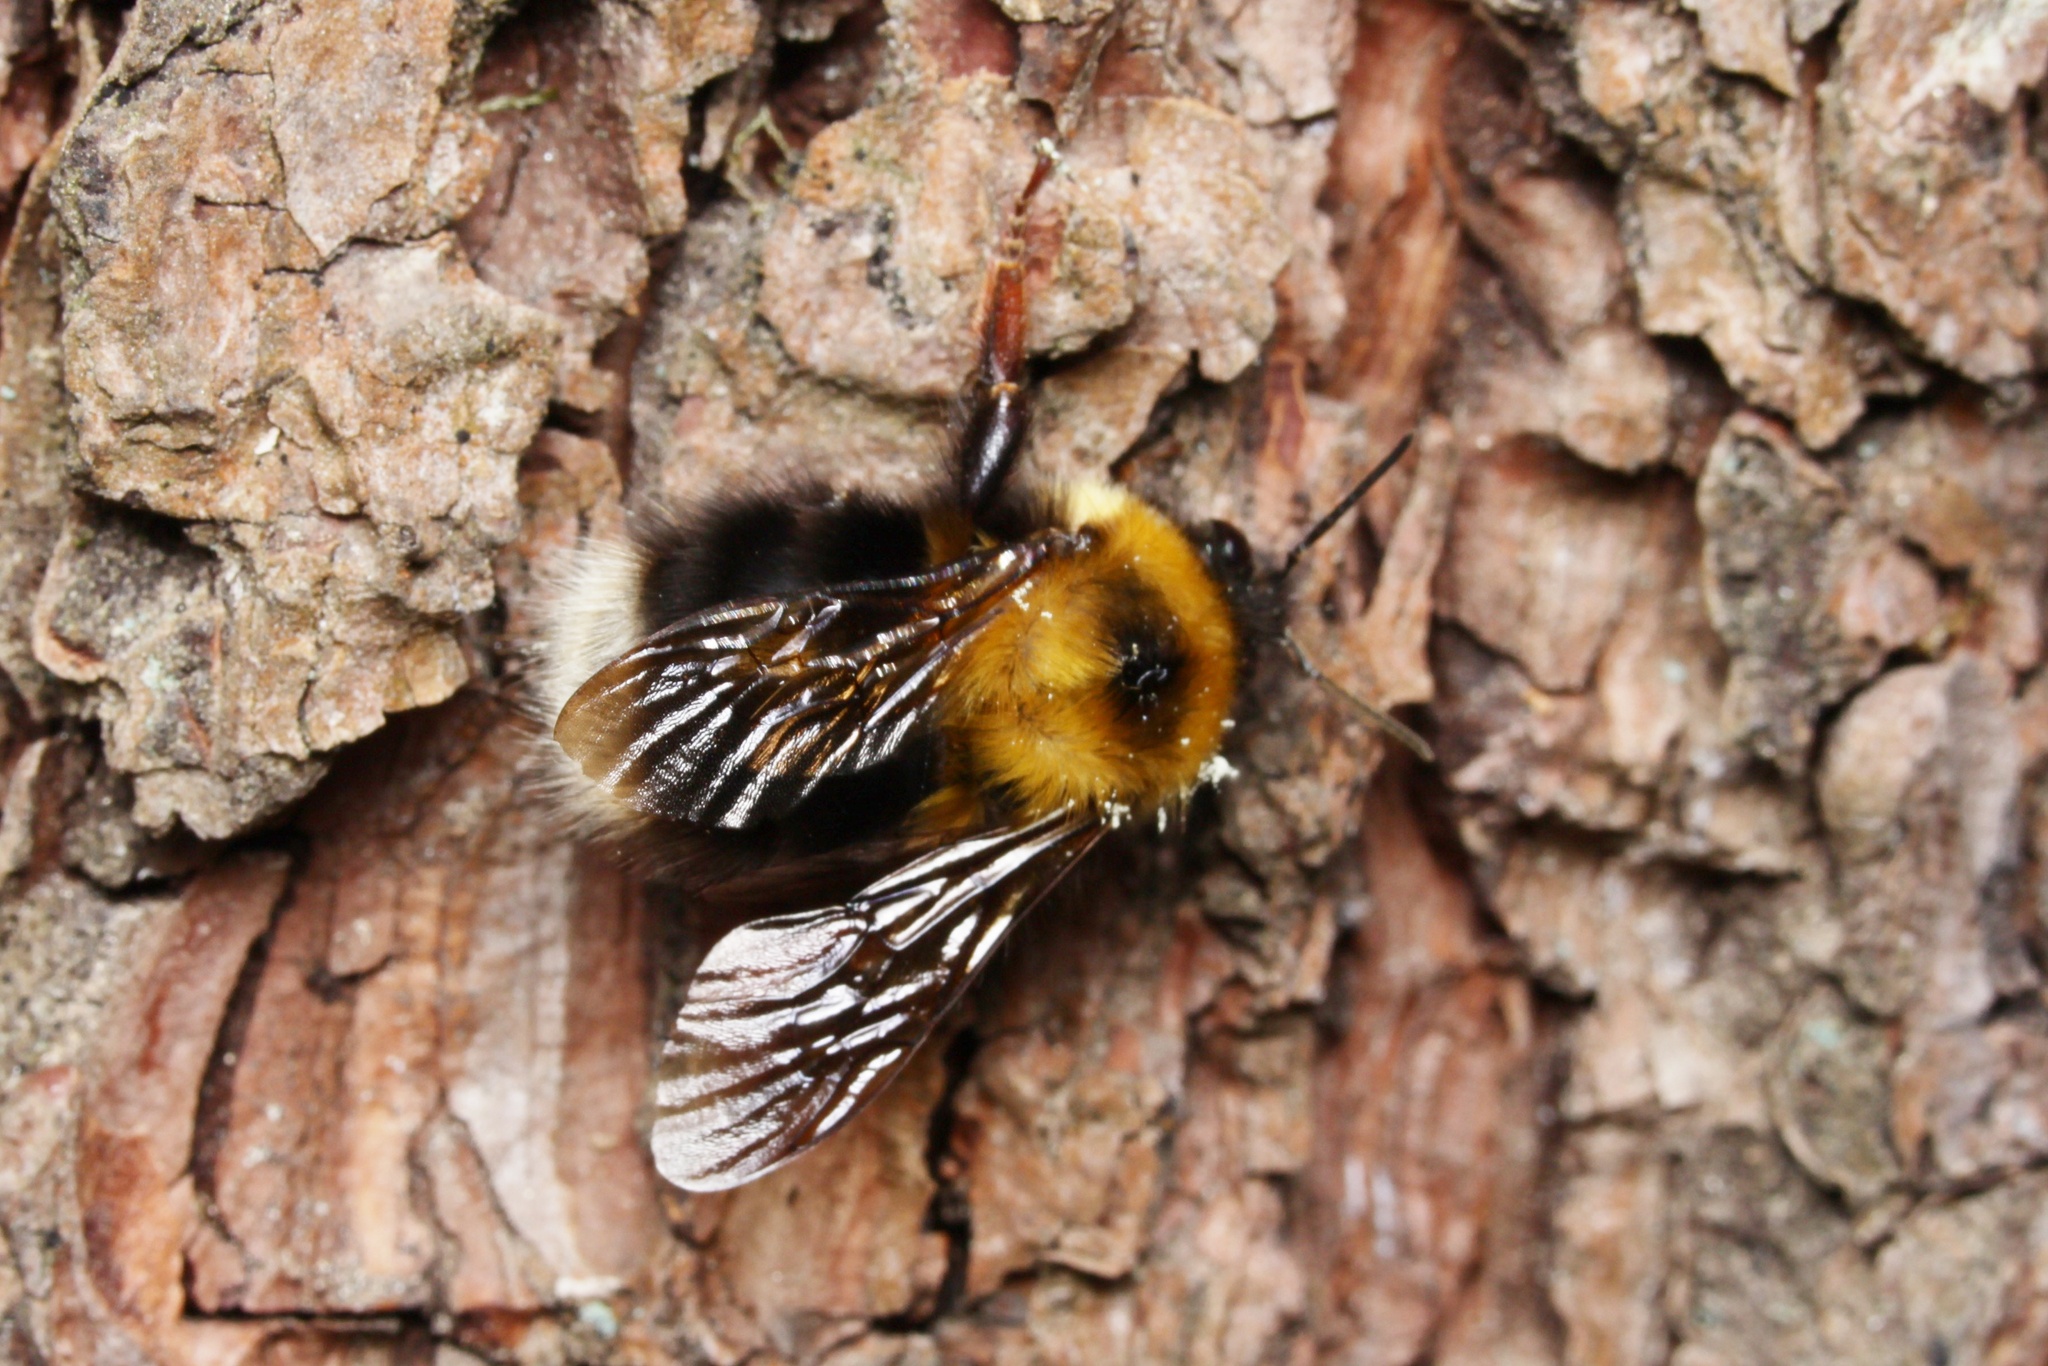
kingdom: Animalia
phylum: Arthropoda
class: Insecta
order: Hymenoptera
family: Apidae
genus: Bombus
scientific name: Bombus wolongensis
